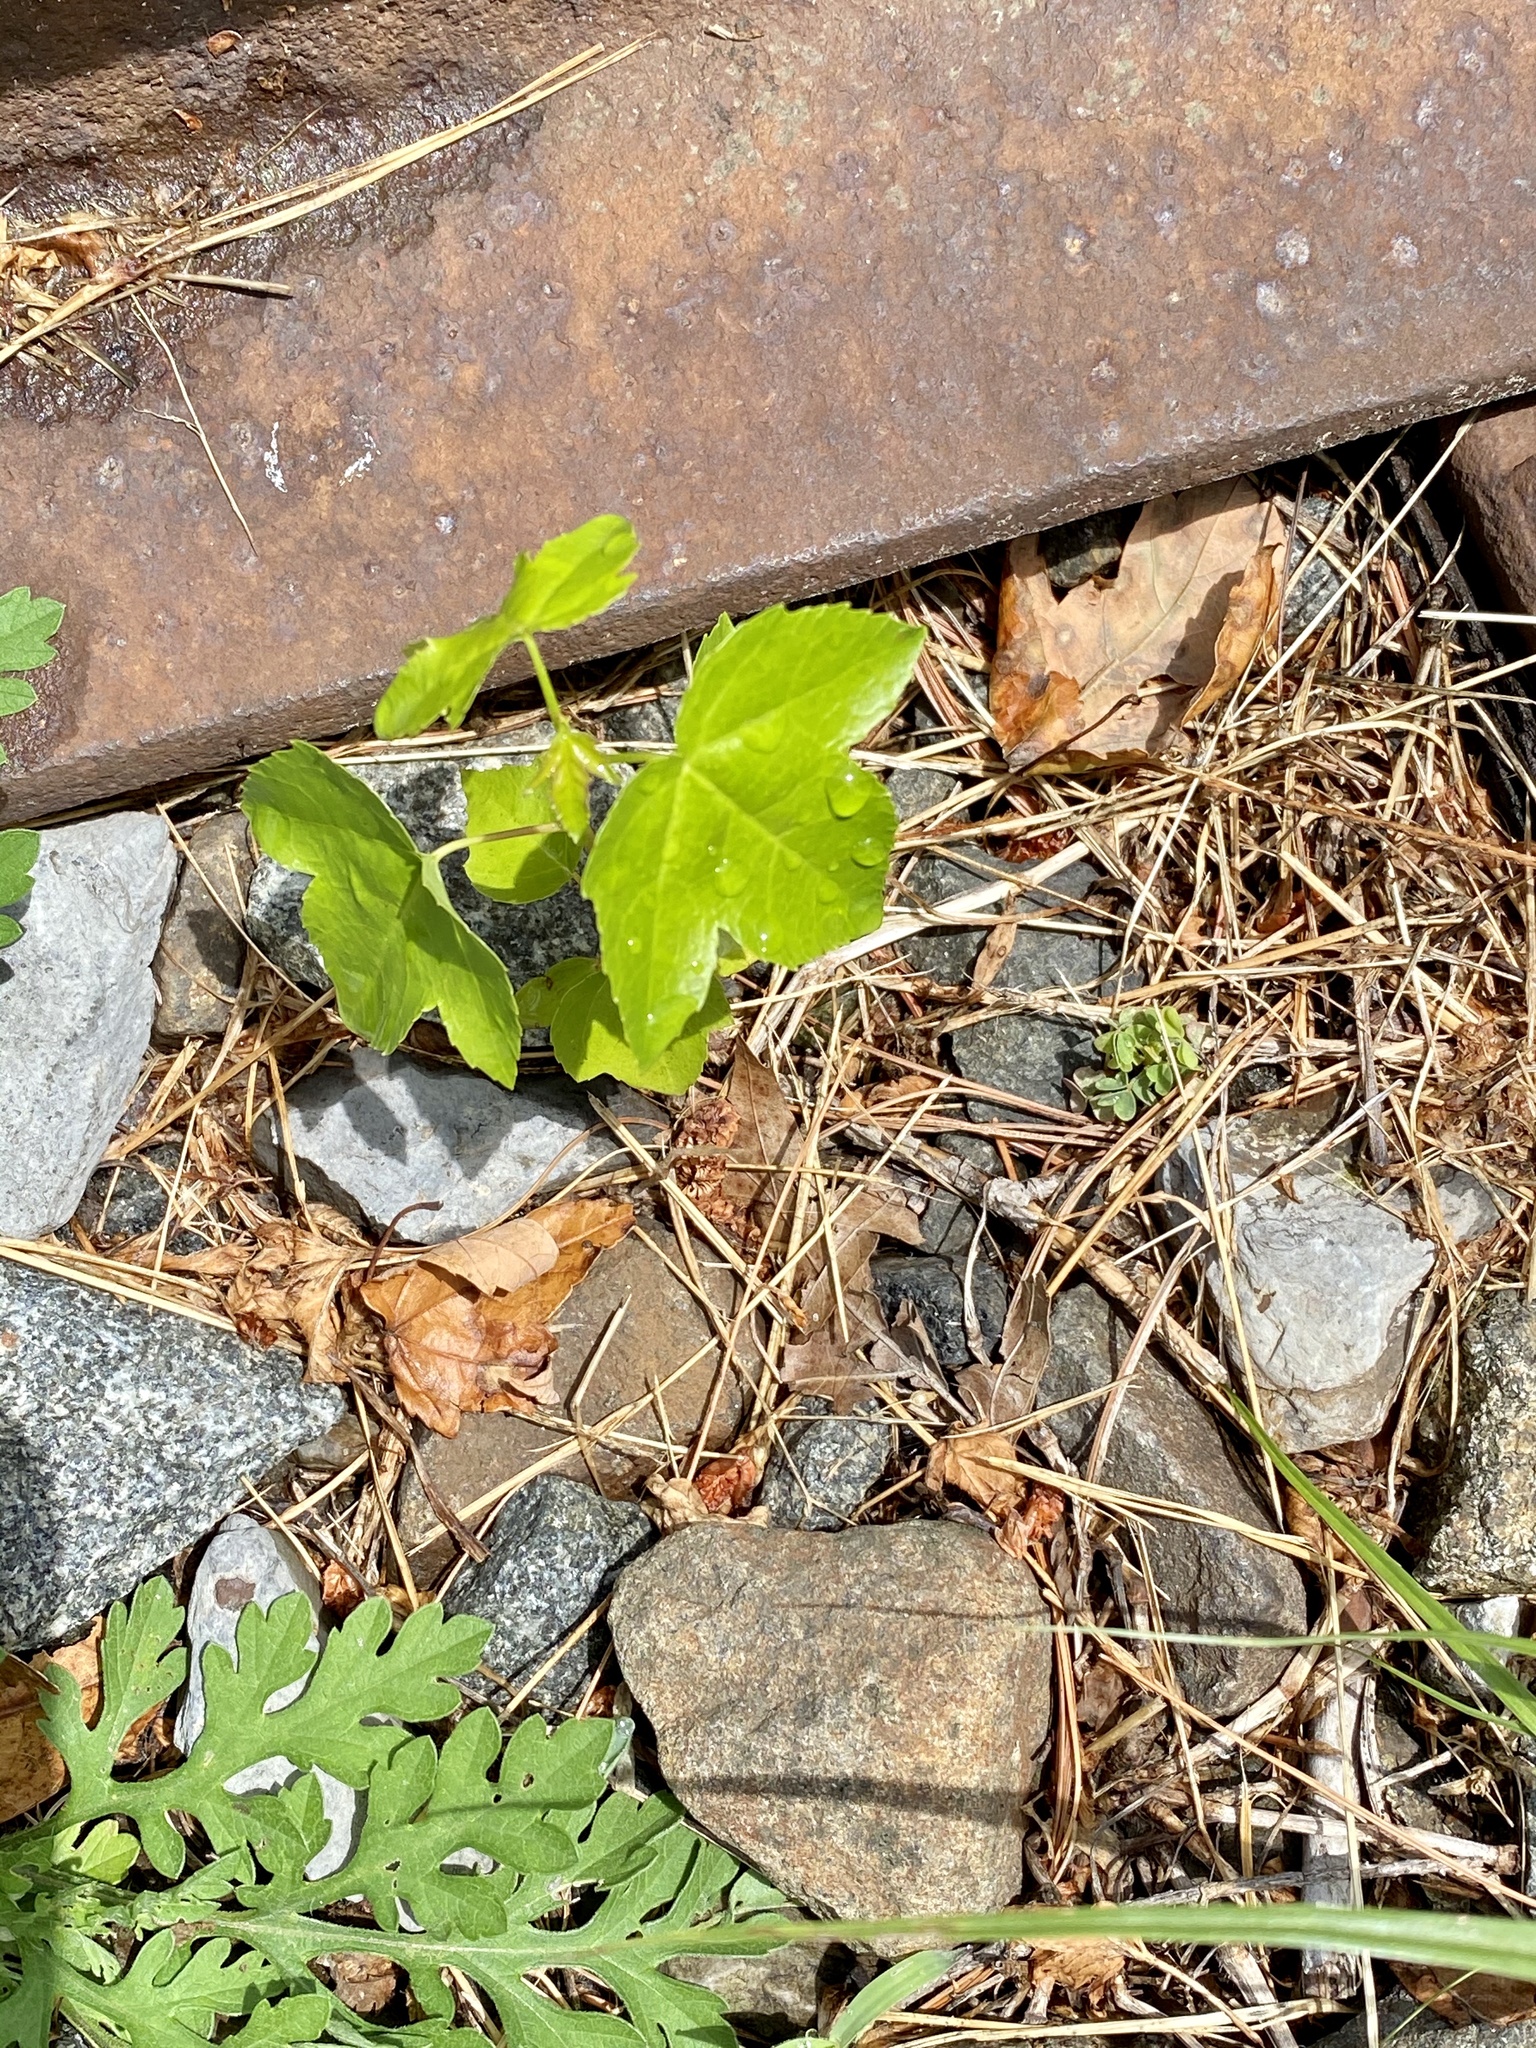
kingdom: Plantae
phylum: Tracheophyta
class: Magnoliopsida
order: Saxifragales
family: Altingiaceae
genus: Liquidambar
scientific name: Liquidambar styraciflua
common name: Sweet gum
